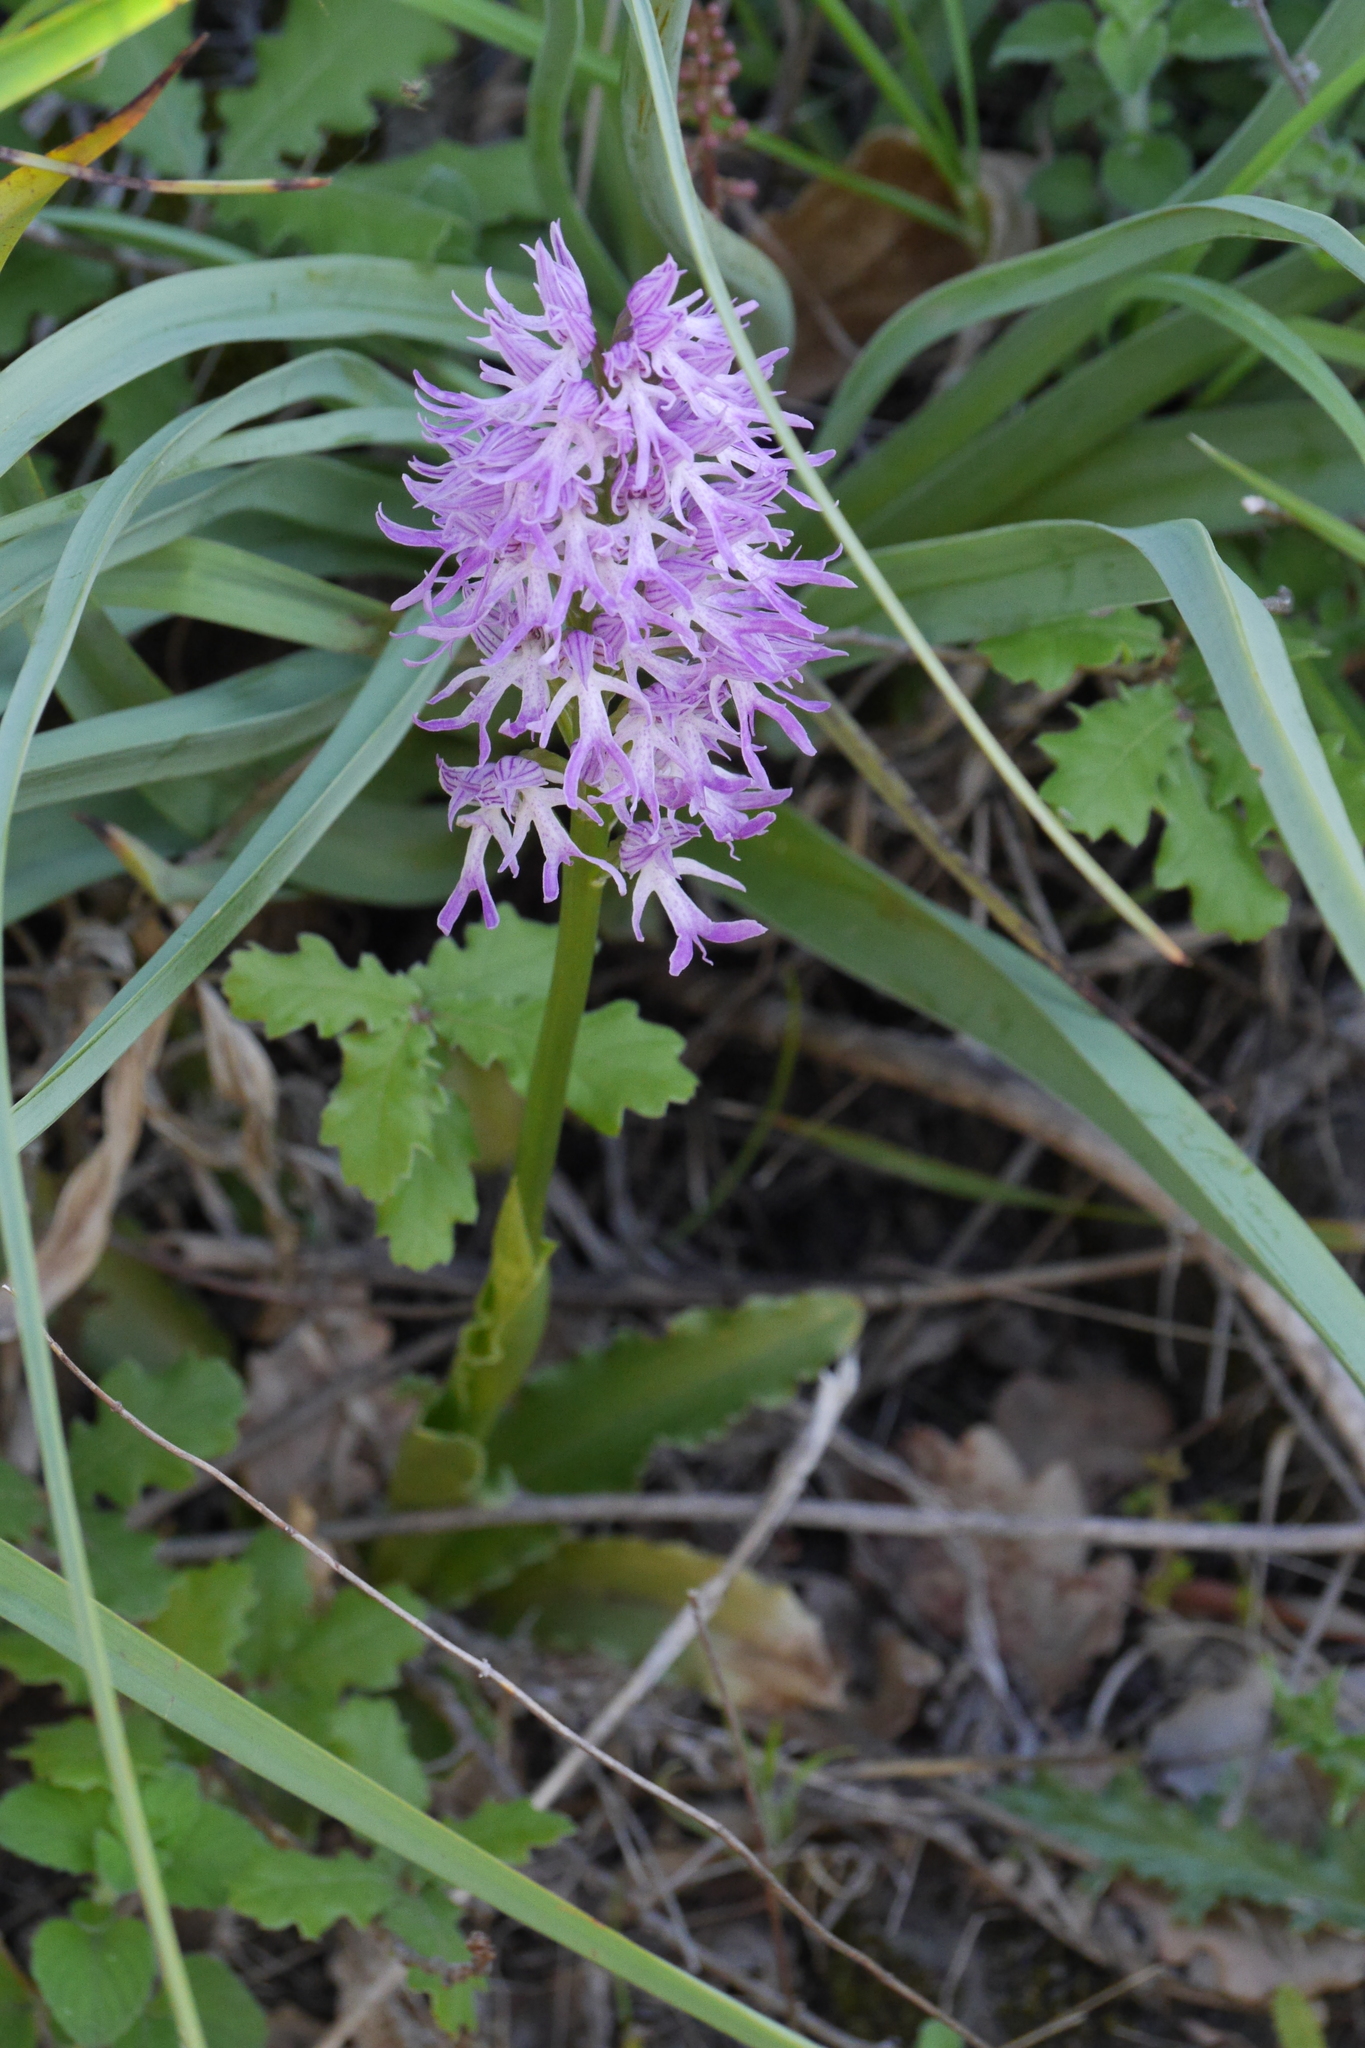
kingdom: Plantae
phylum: Tracheophyta
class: Liliopsida
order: Asparagales
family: Orchidaceae
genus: Orchis
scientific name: Orchis italica
